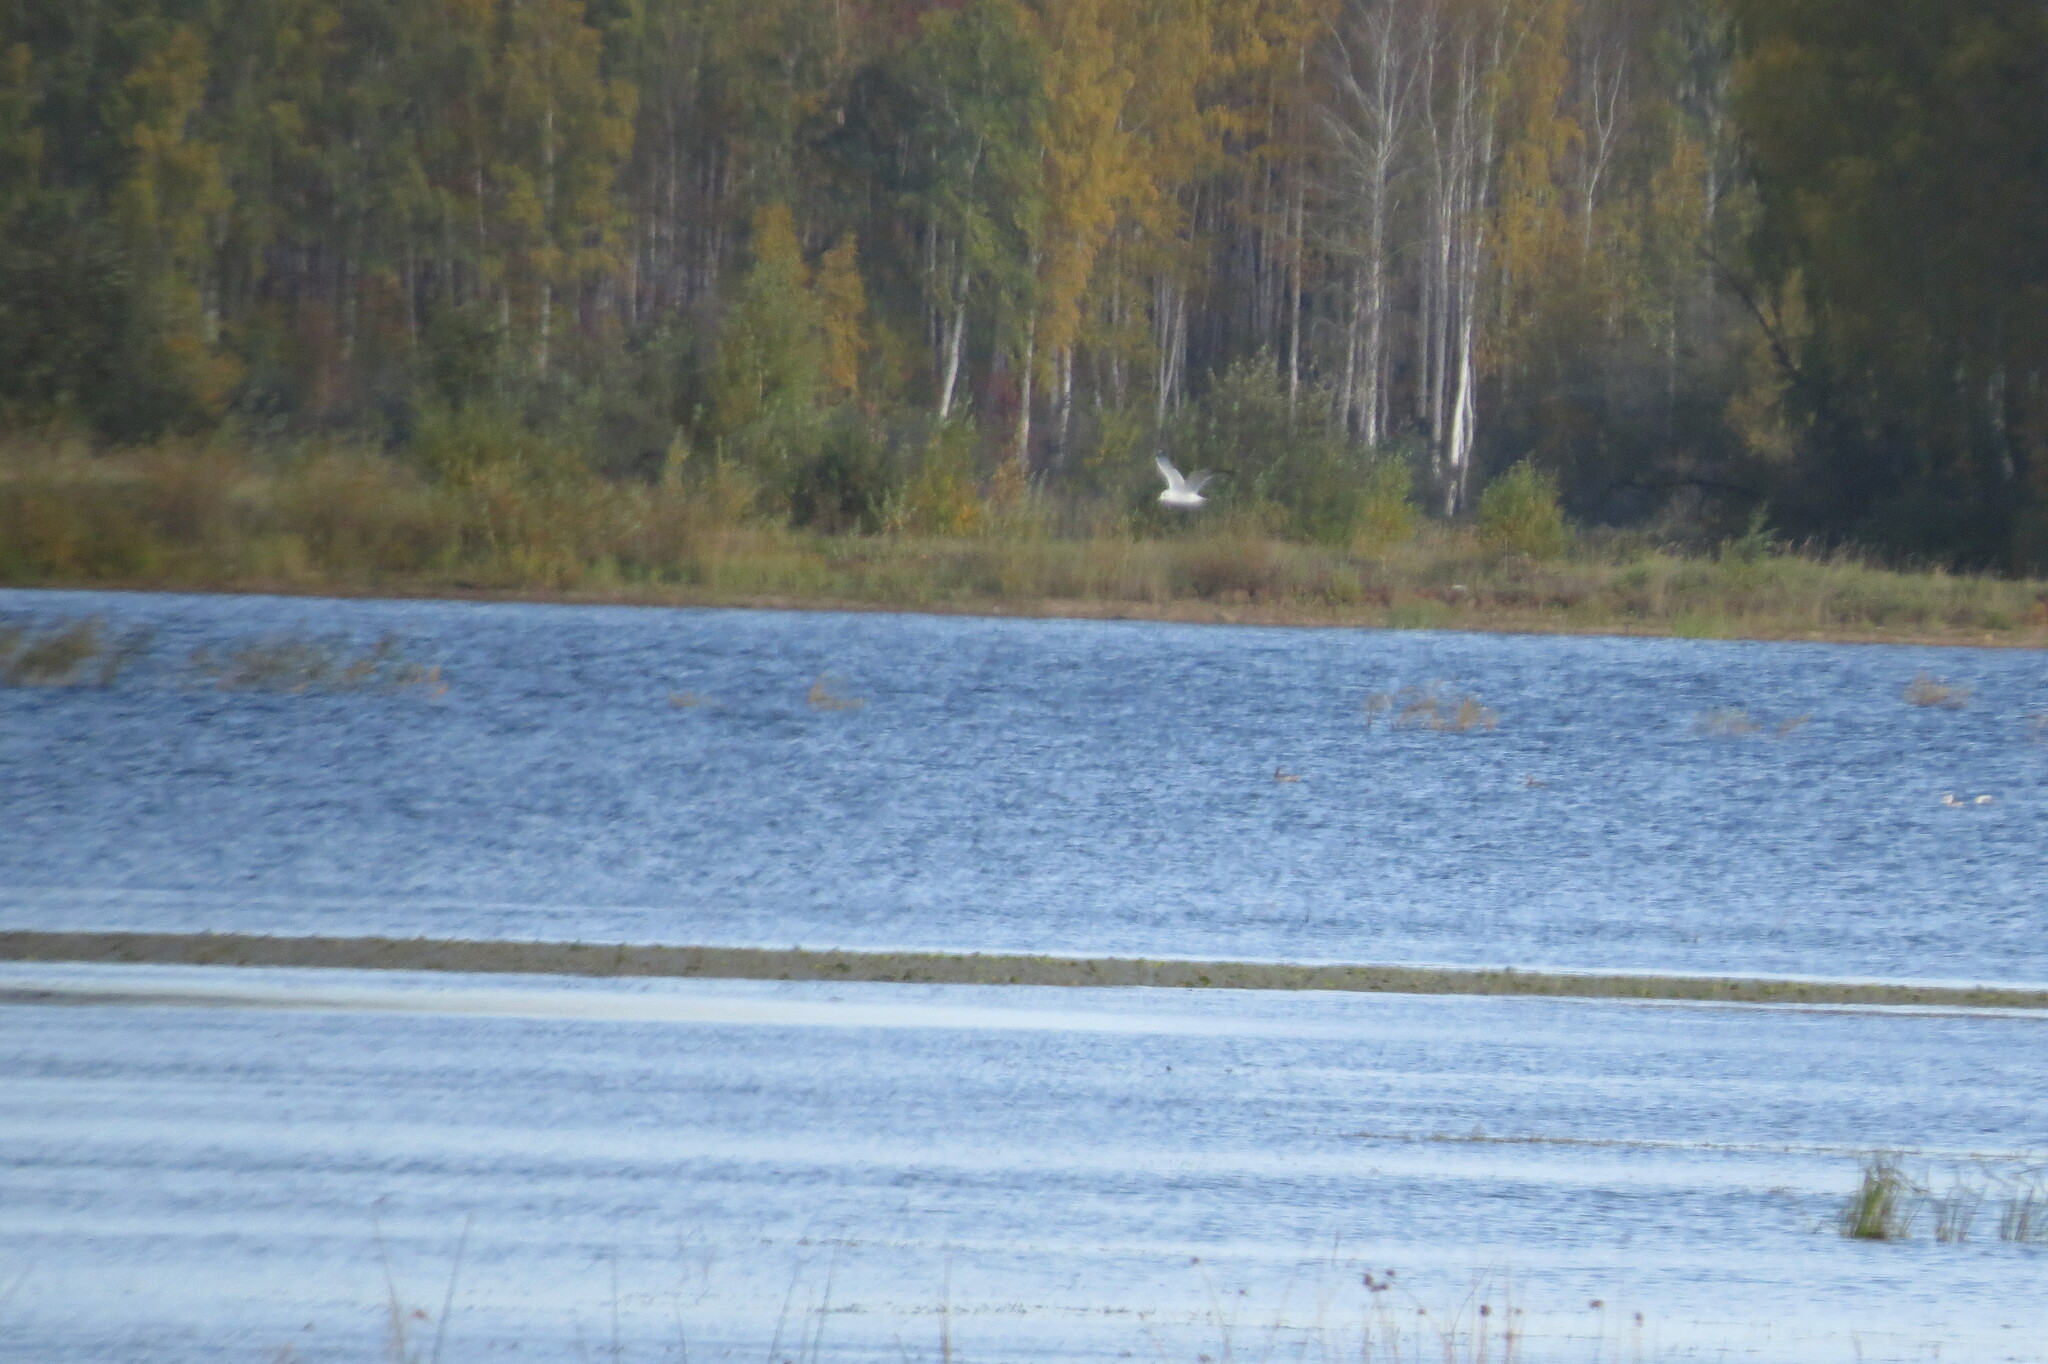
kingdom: Animalia
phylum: Chordata
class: Aves
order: Charadriiformes
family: Laridae
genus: Larus
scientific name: Larus canus
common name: Mew gull
